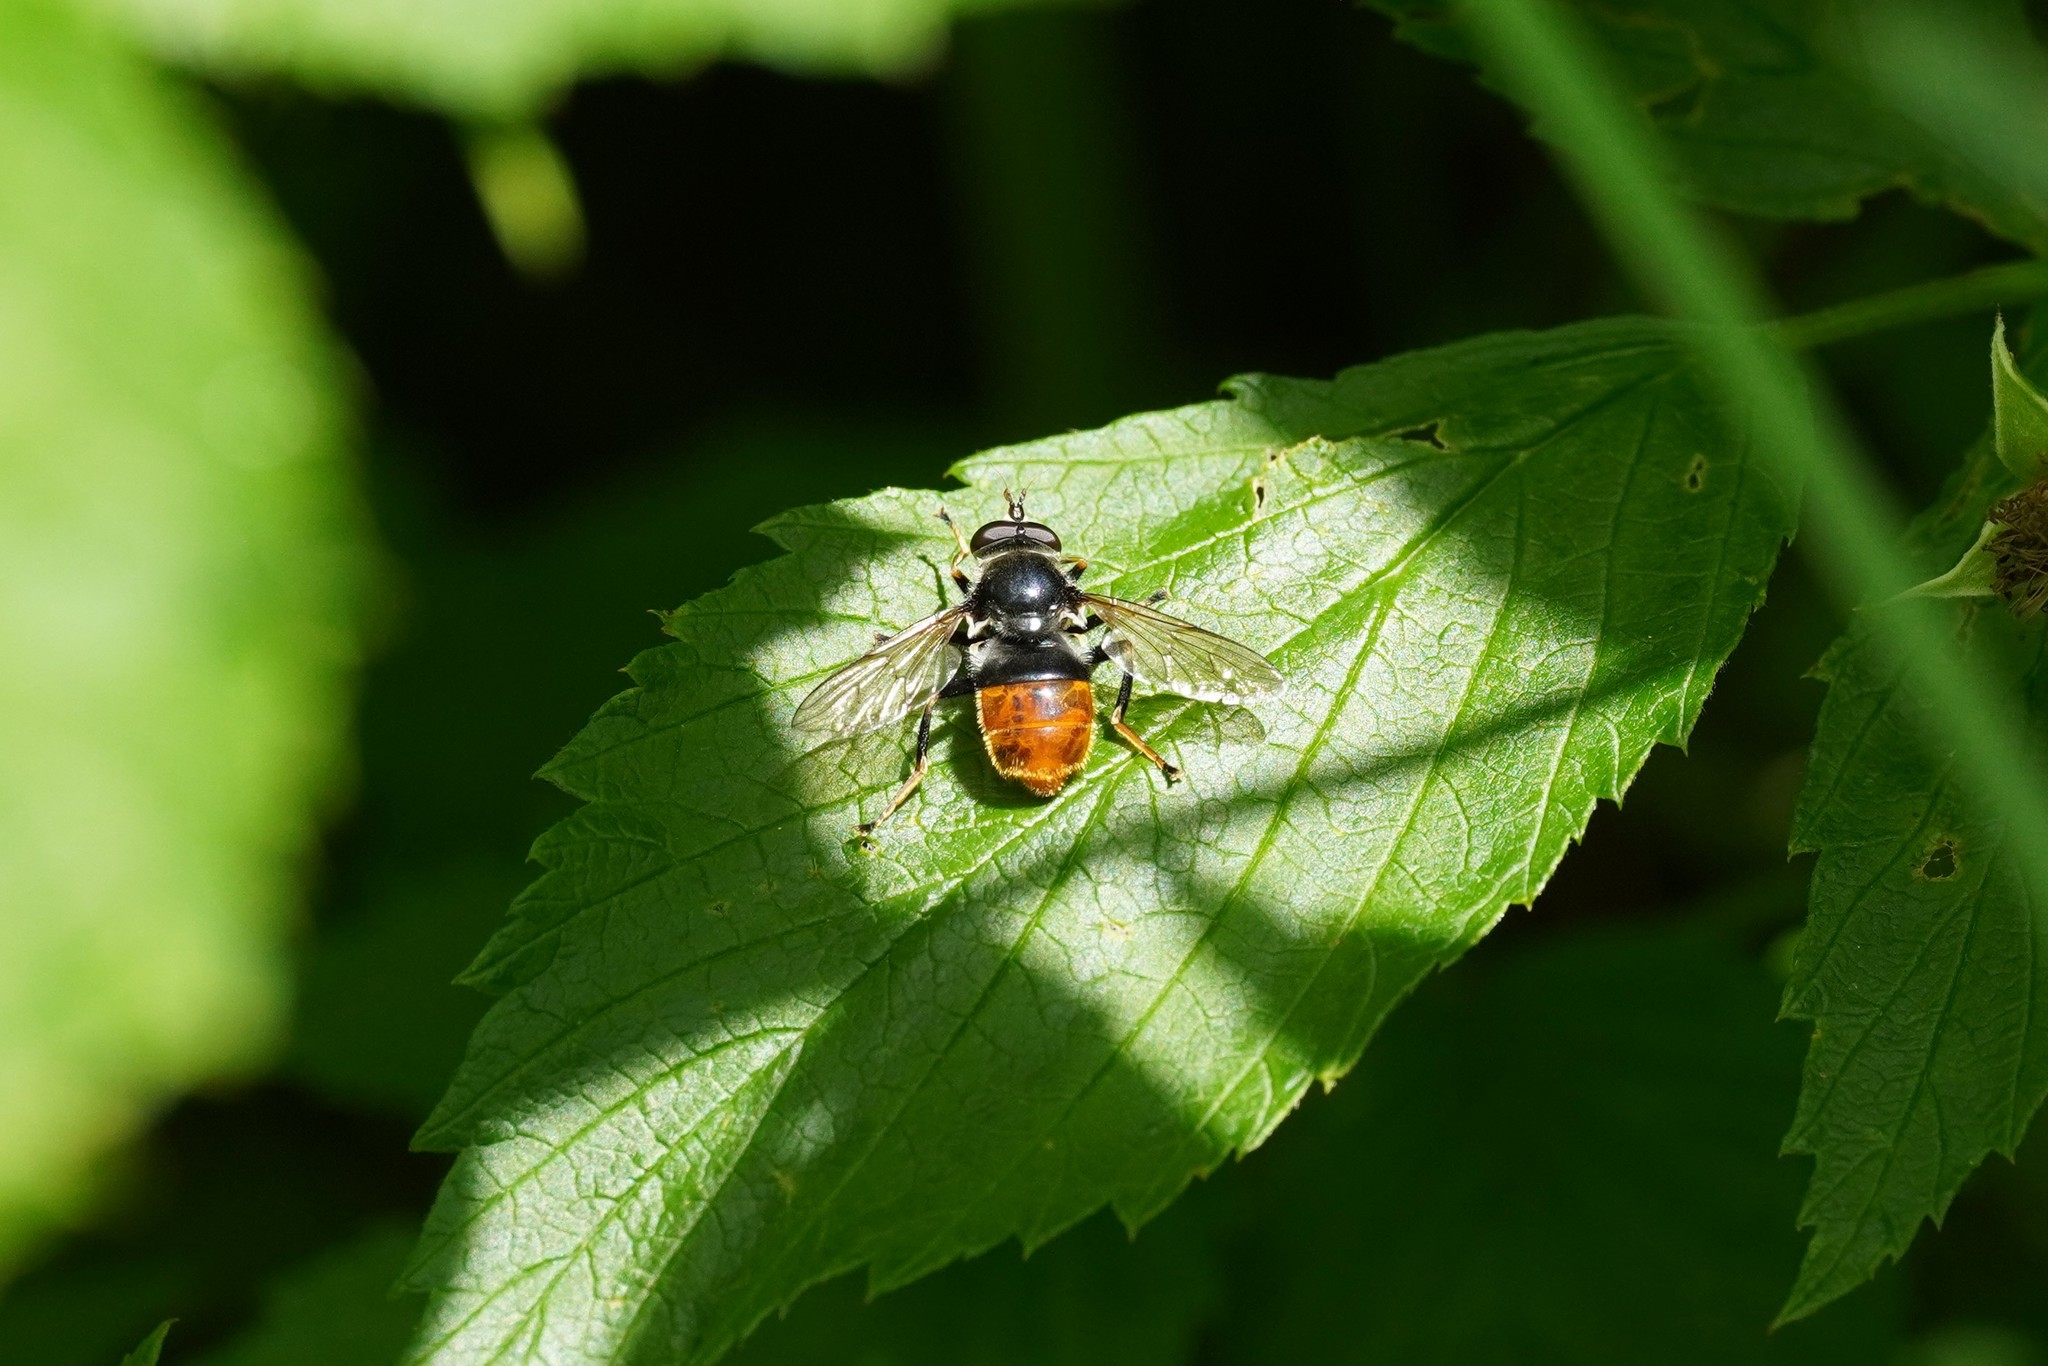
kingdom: Animalia
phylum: Arthropoda
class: Insecta
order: Diptera
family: Syrphidae
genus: Blera
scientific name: Blera fallax
